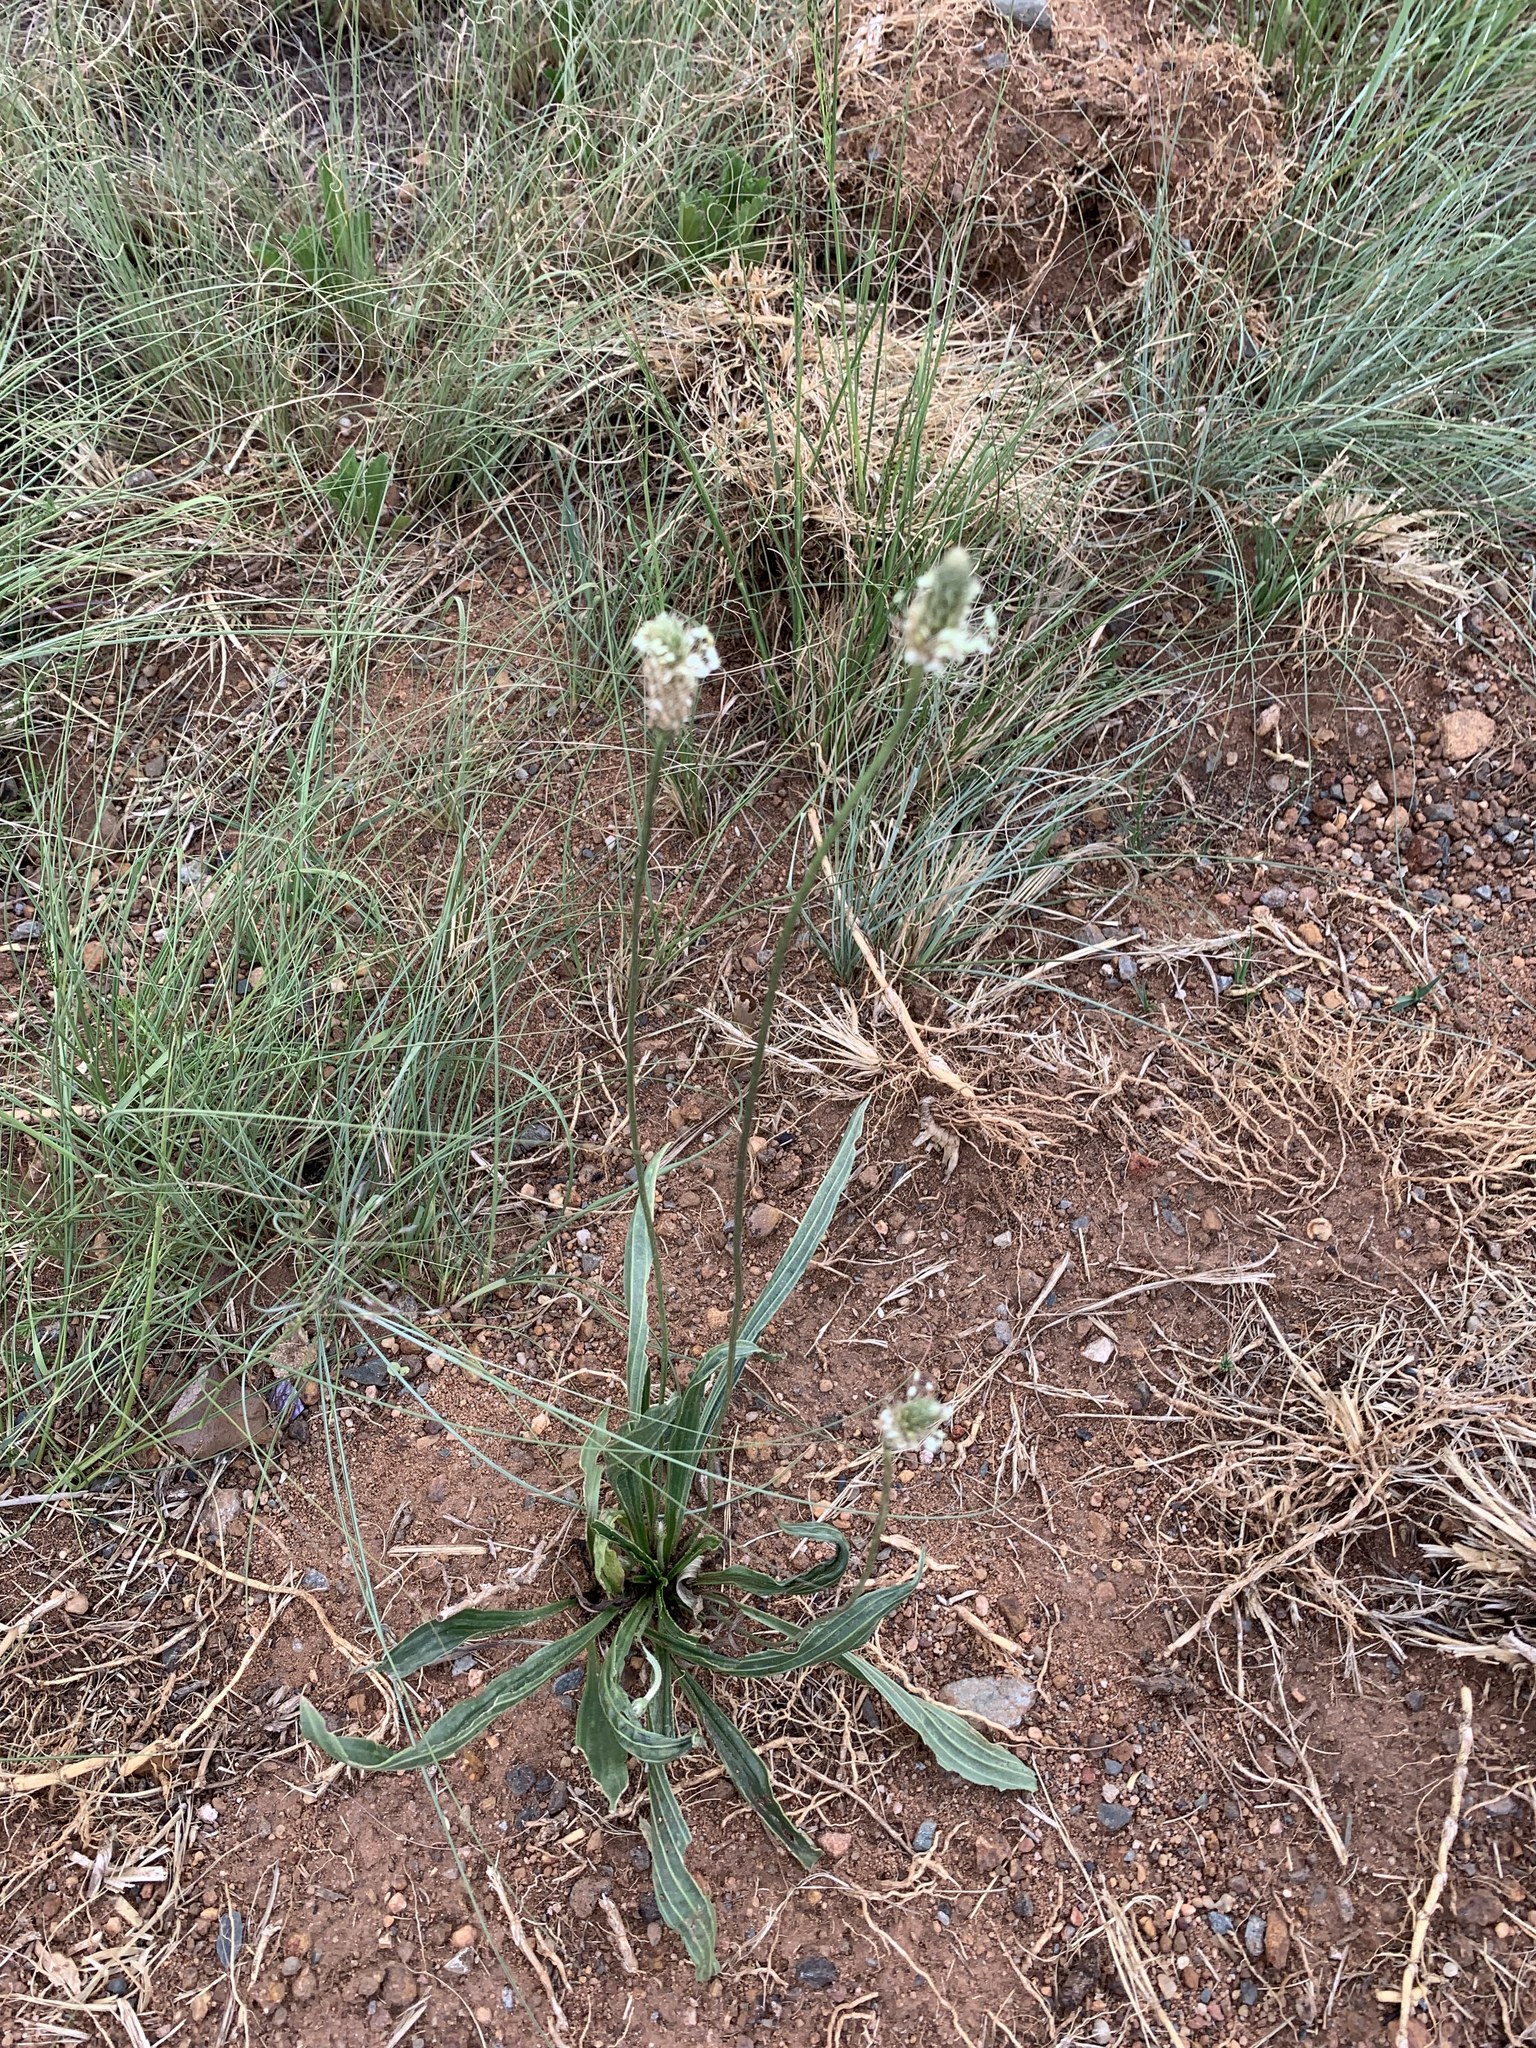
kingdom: Plantae
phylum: Tracheophyta
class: Magnoliopsida
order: Lamiales
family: Plantaginaceae
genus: Plantago
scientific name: Plantago lanceolata
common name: Ribwort plantain
